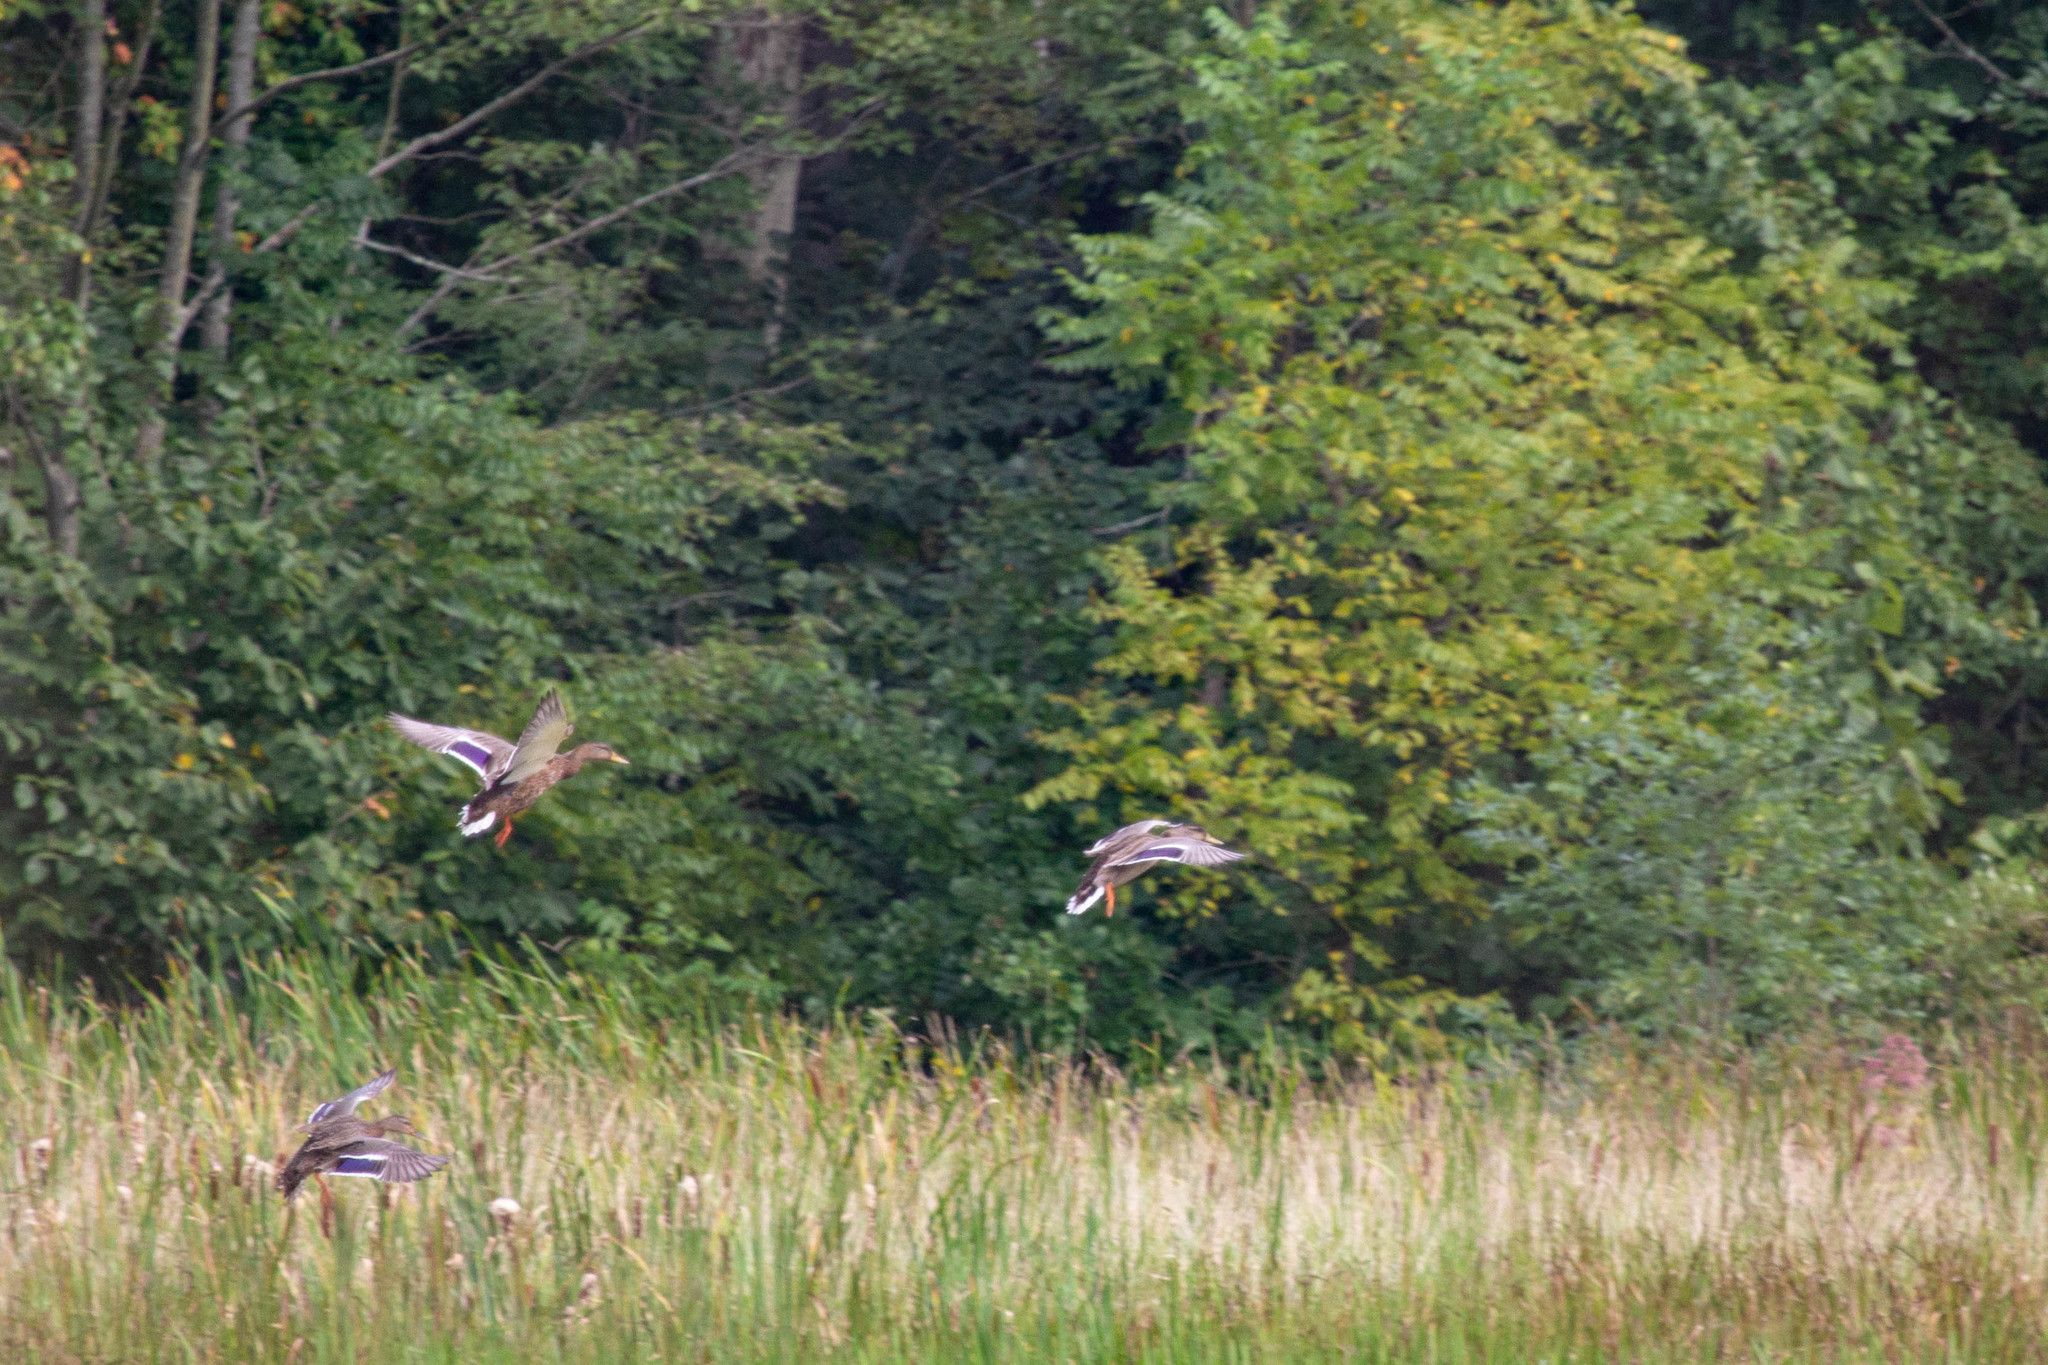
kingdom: Animalia
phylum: Chordata
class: Aves
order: Anseriformes
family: Anatidae
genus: Anas
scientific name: Anas platyrhynchos
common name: Mallard
